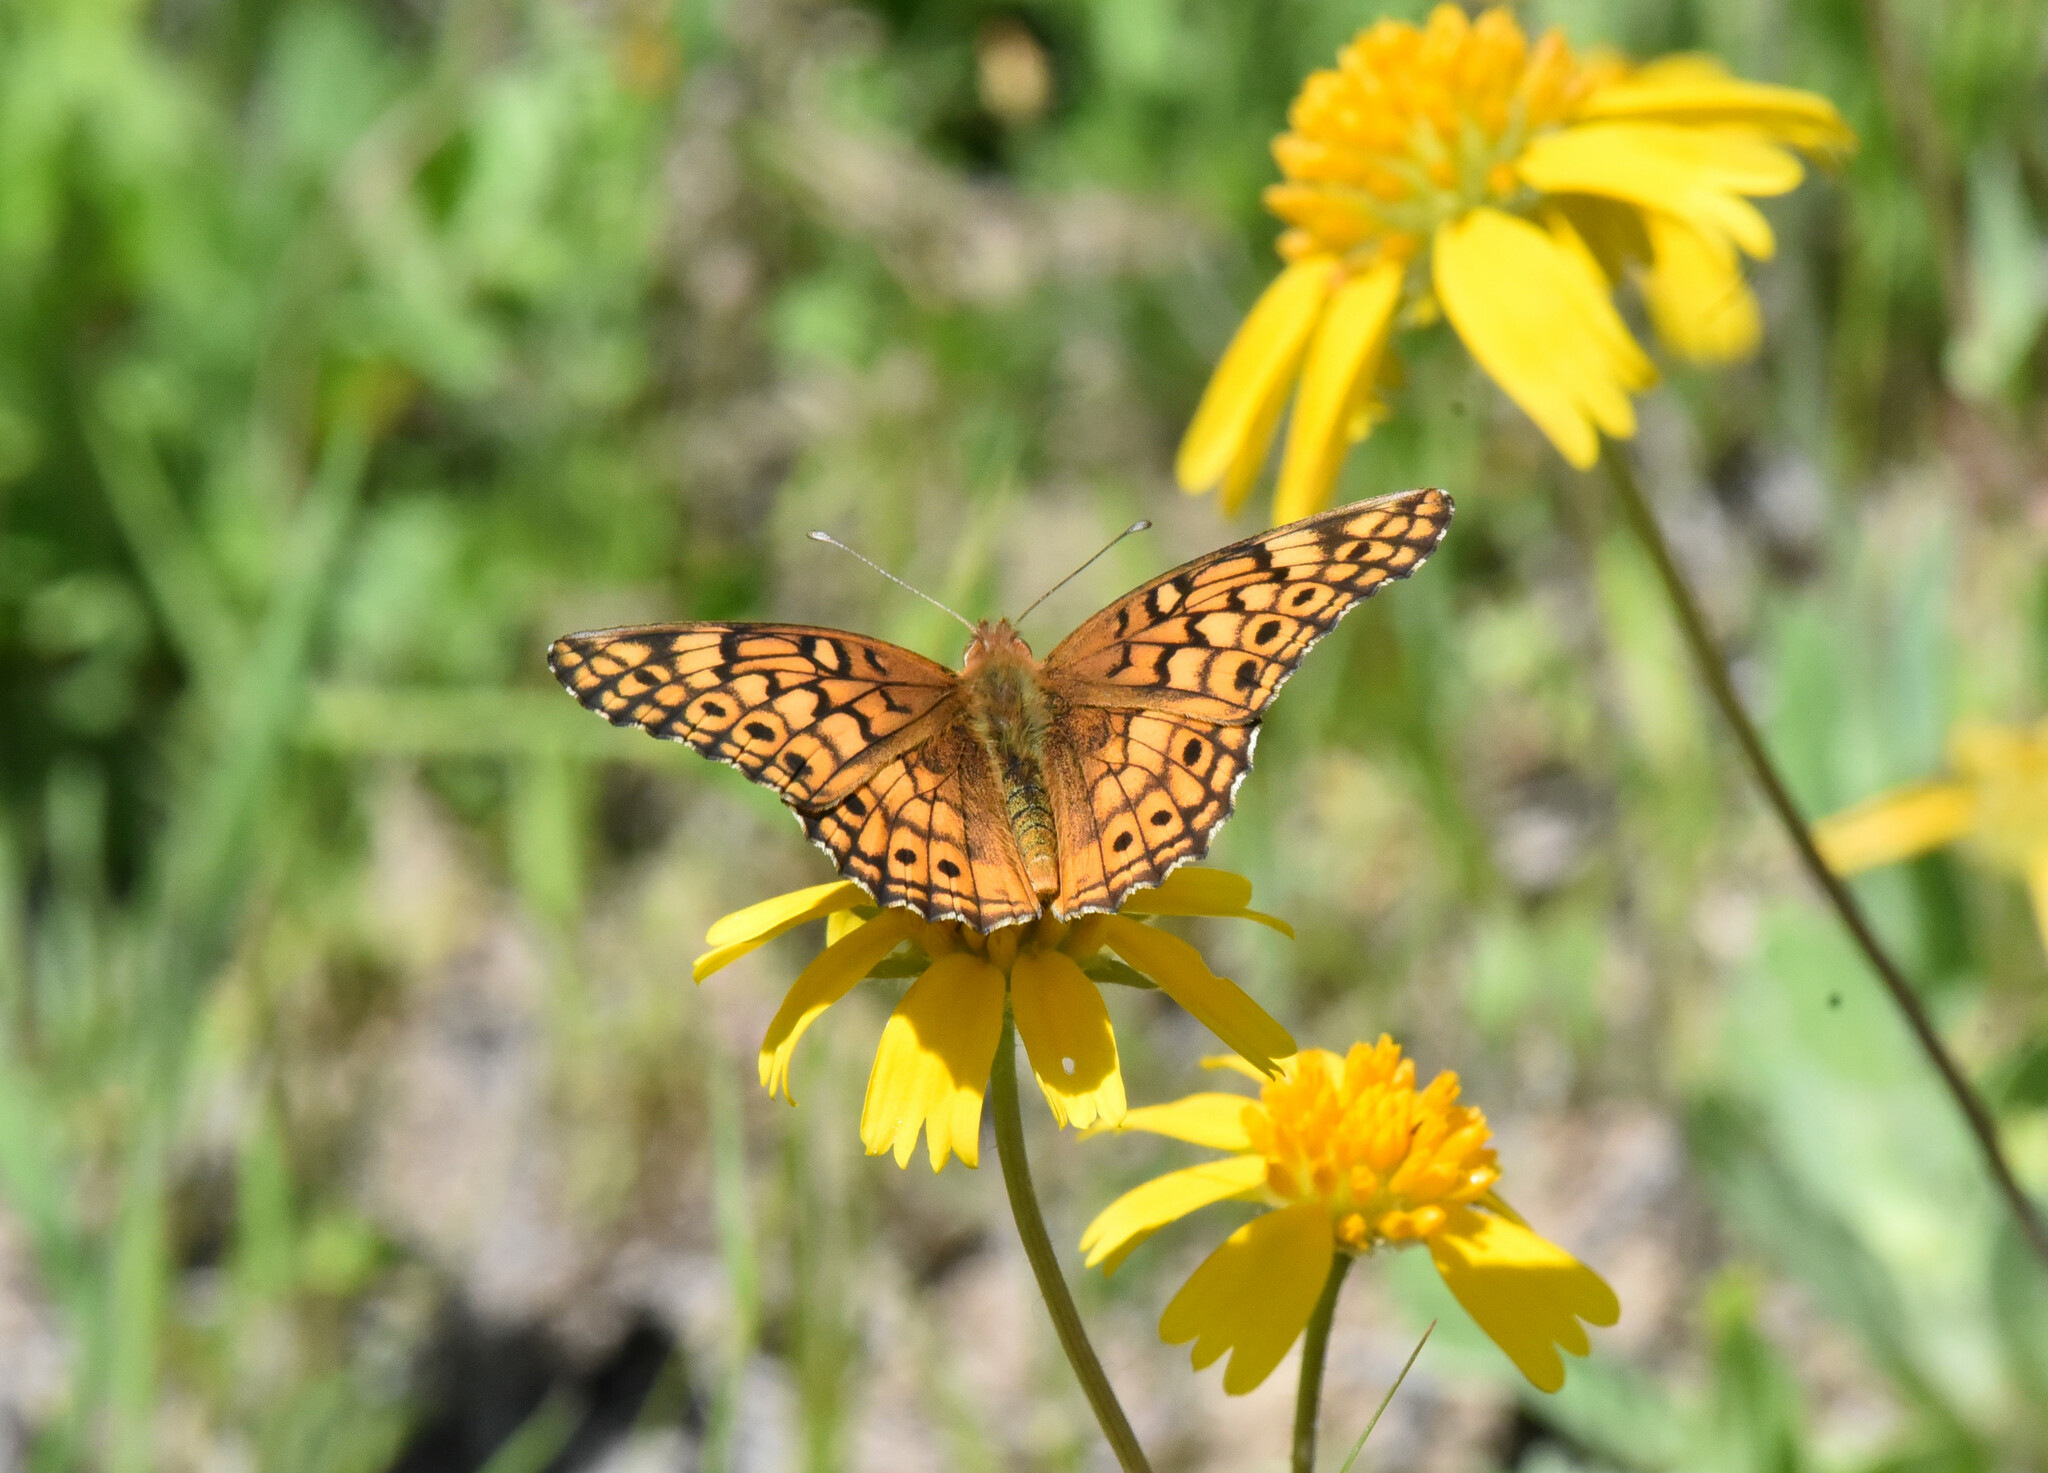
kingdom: Animalia
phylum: Arthropoda
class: Insecta
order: Lepidoptera
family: Nymphalidae
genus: Euptoieta
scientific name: Euptoieta claudia
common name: Variegated fritillary
